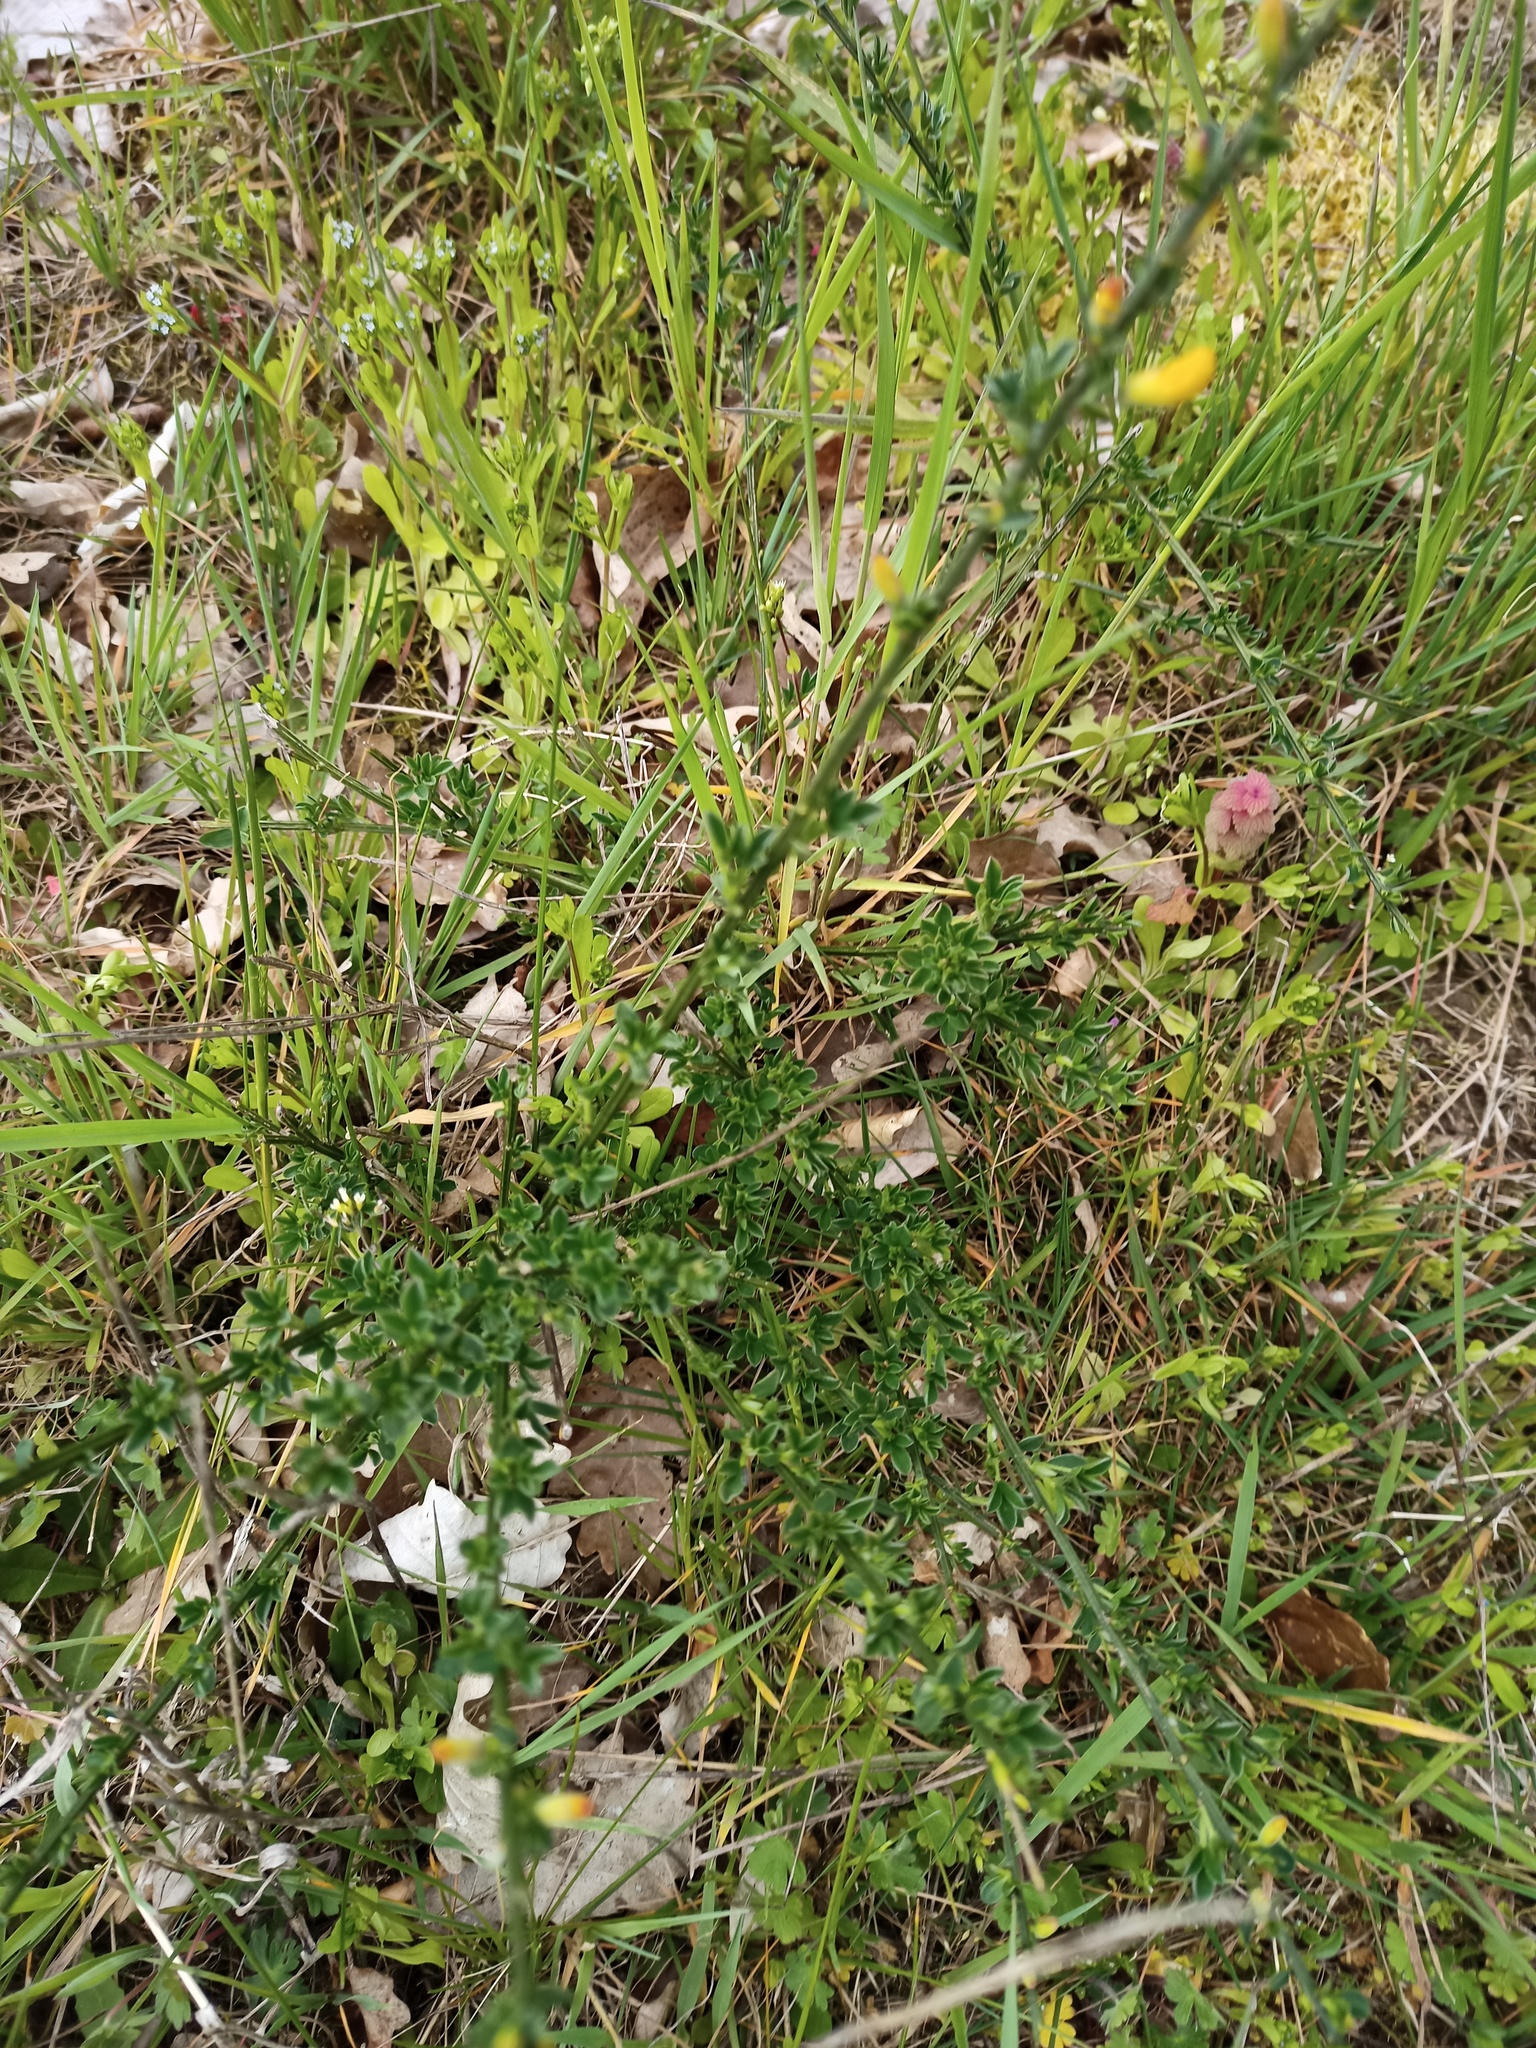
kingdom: Plantae
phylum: Tracheophyta
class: Magnoliopsida
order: Fabales
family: Fabaceae
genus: Cytisus
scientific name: Cytisus scoparius
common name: Scotch broom
